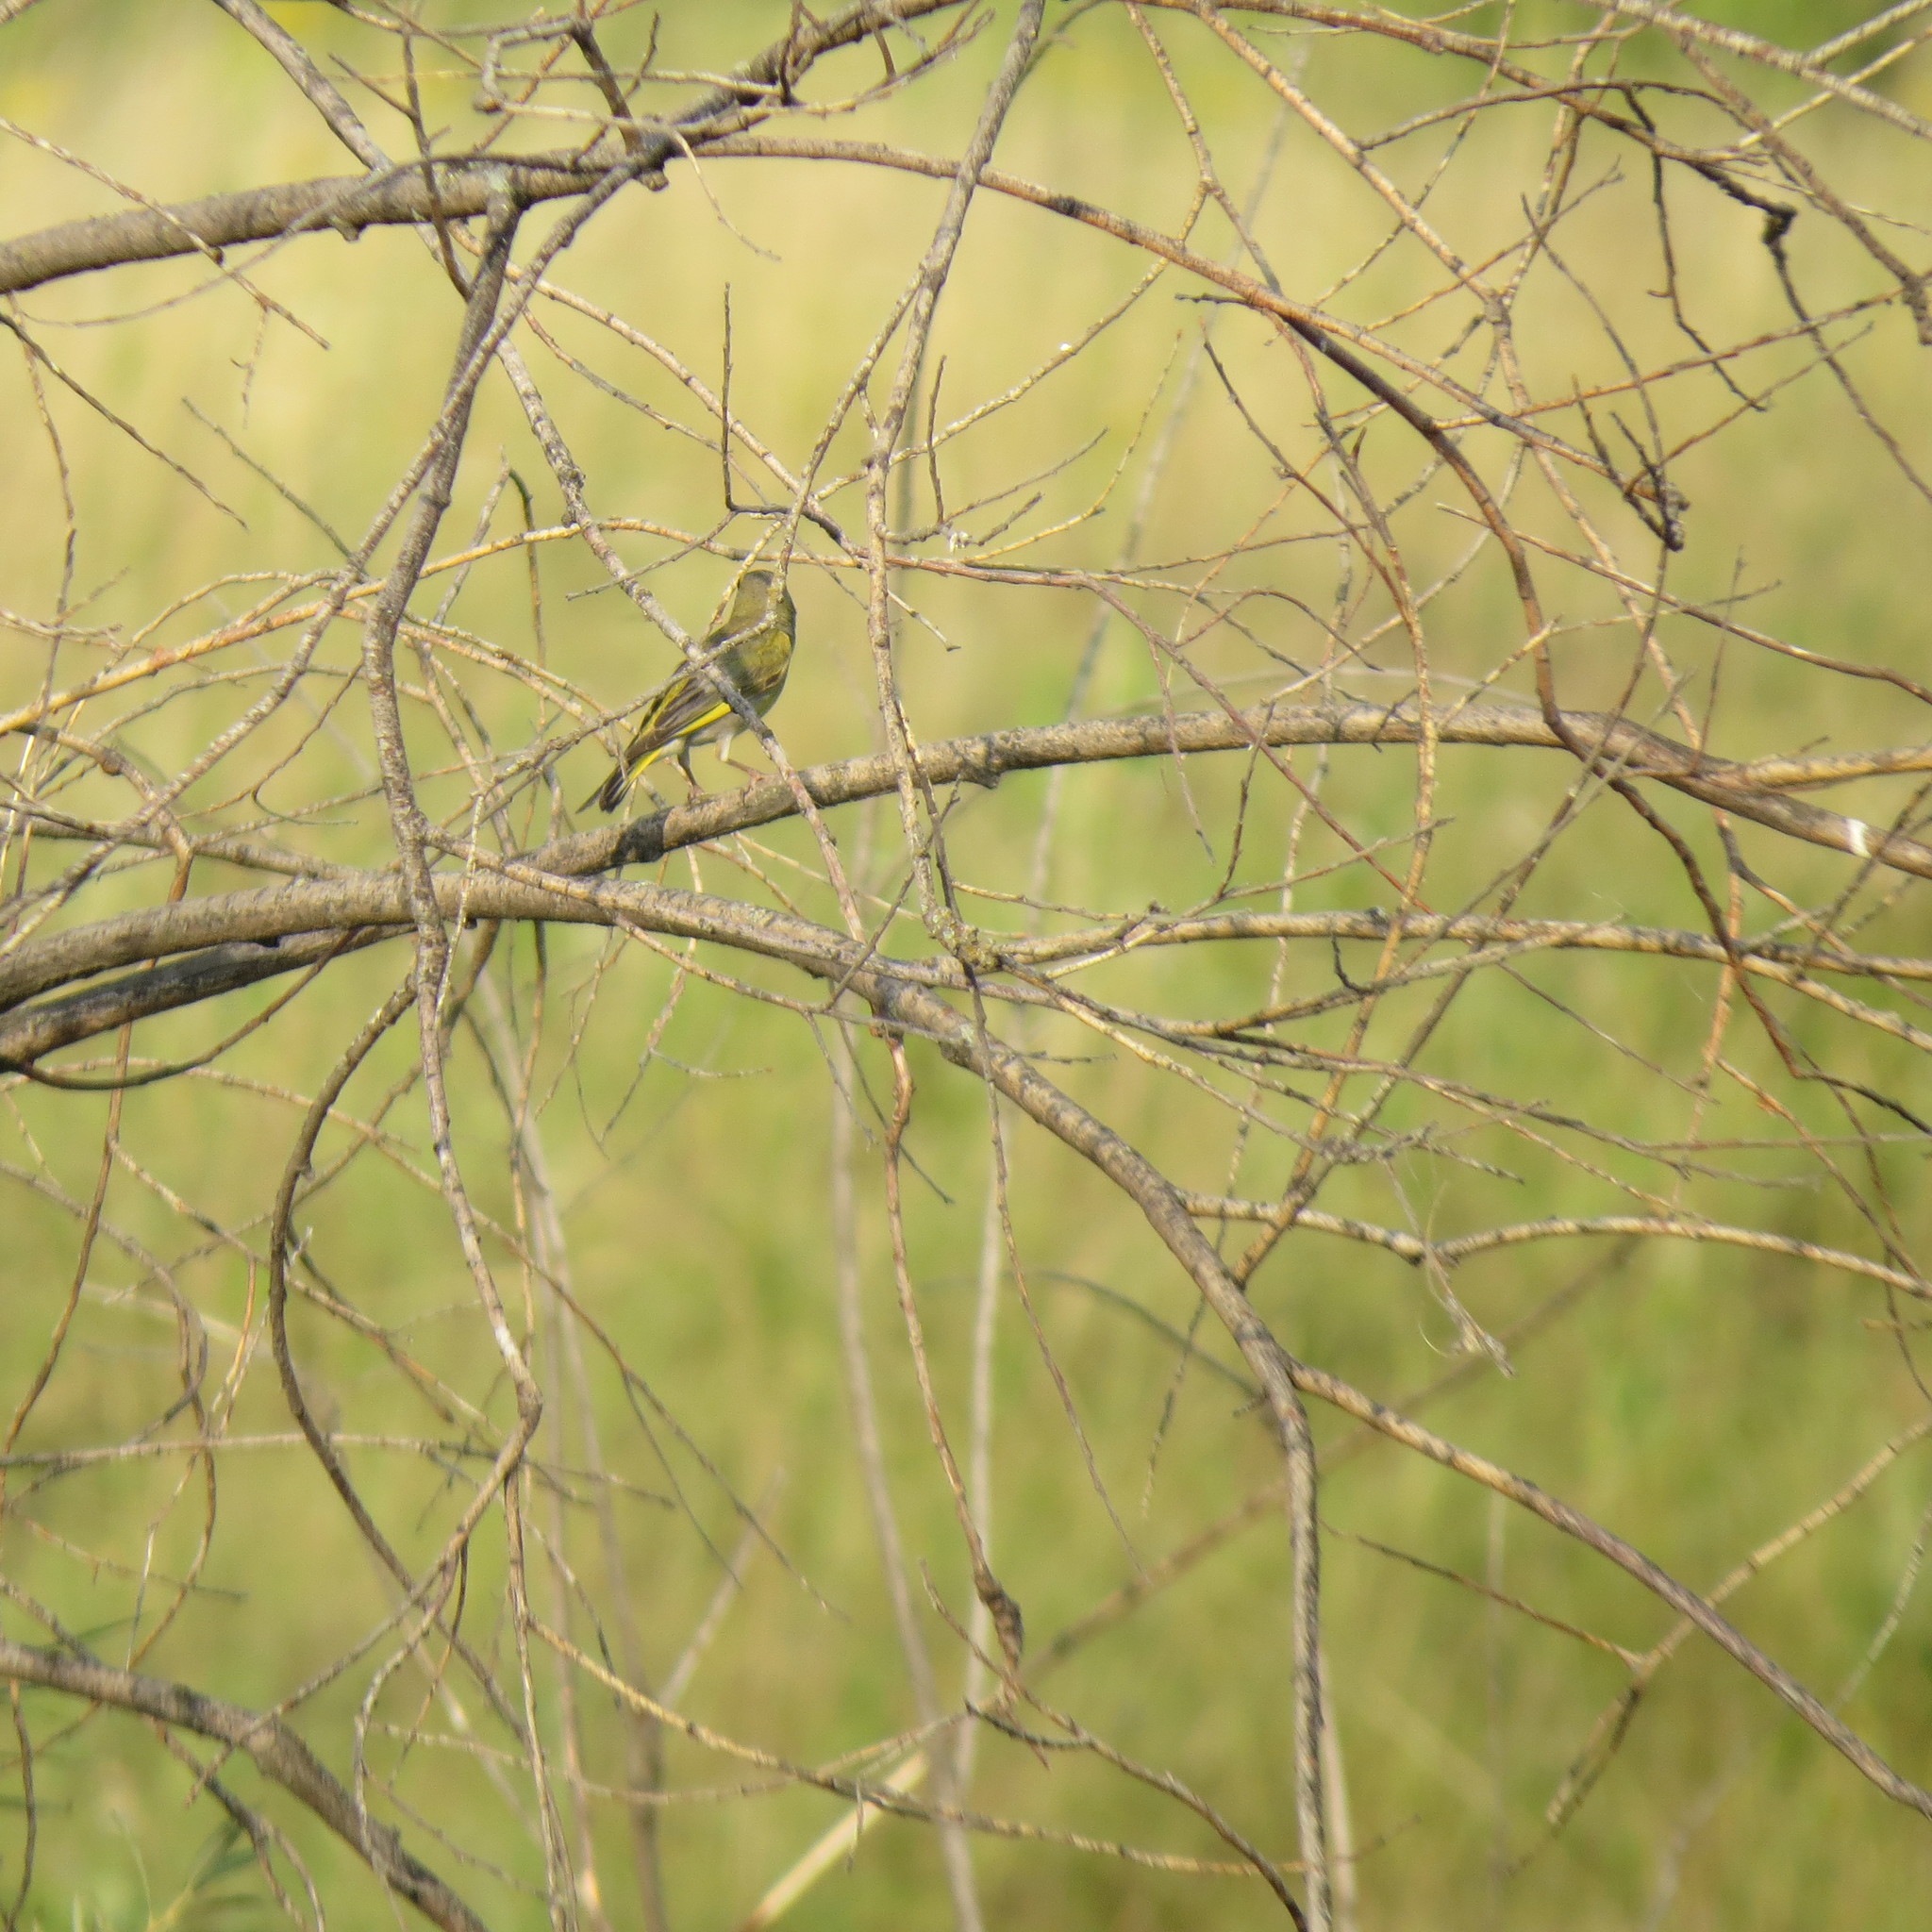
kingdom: Plantae
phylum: Tracheophyta
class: Liliopsida
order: Poales
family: Poaceae
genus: Chloris
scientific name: Chloris chloris
